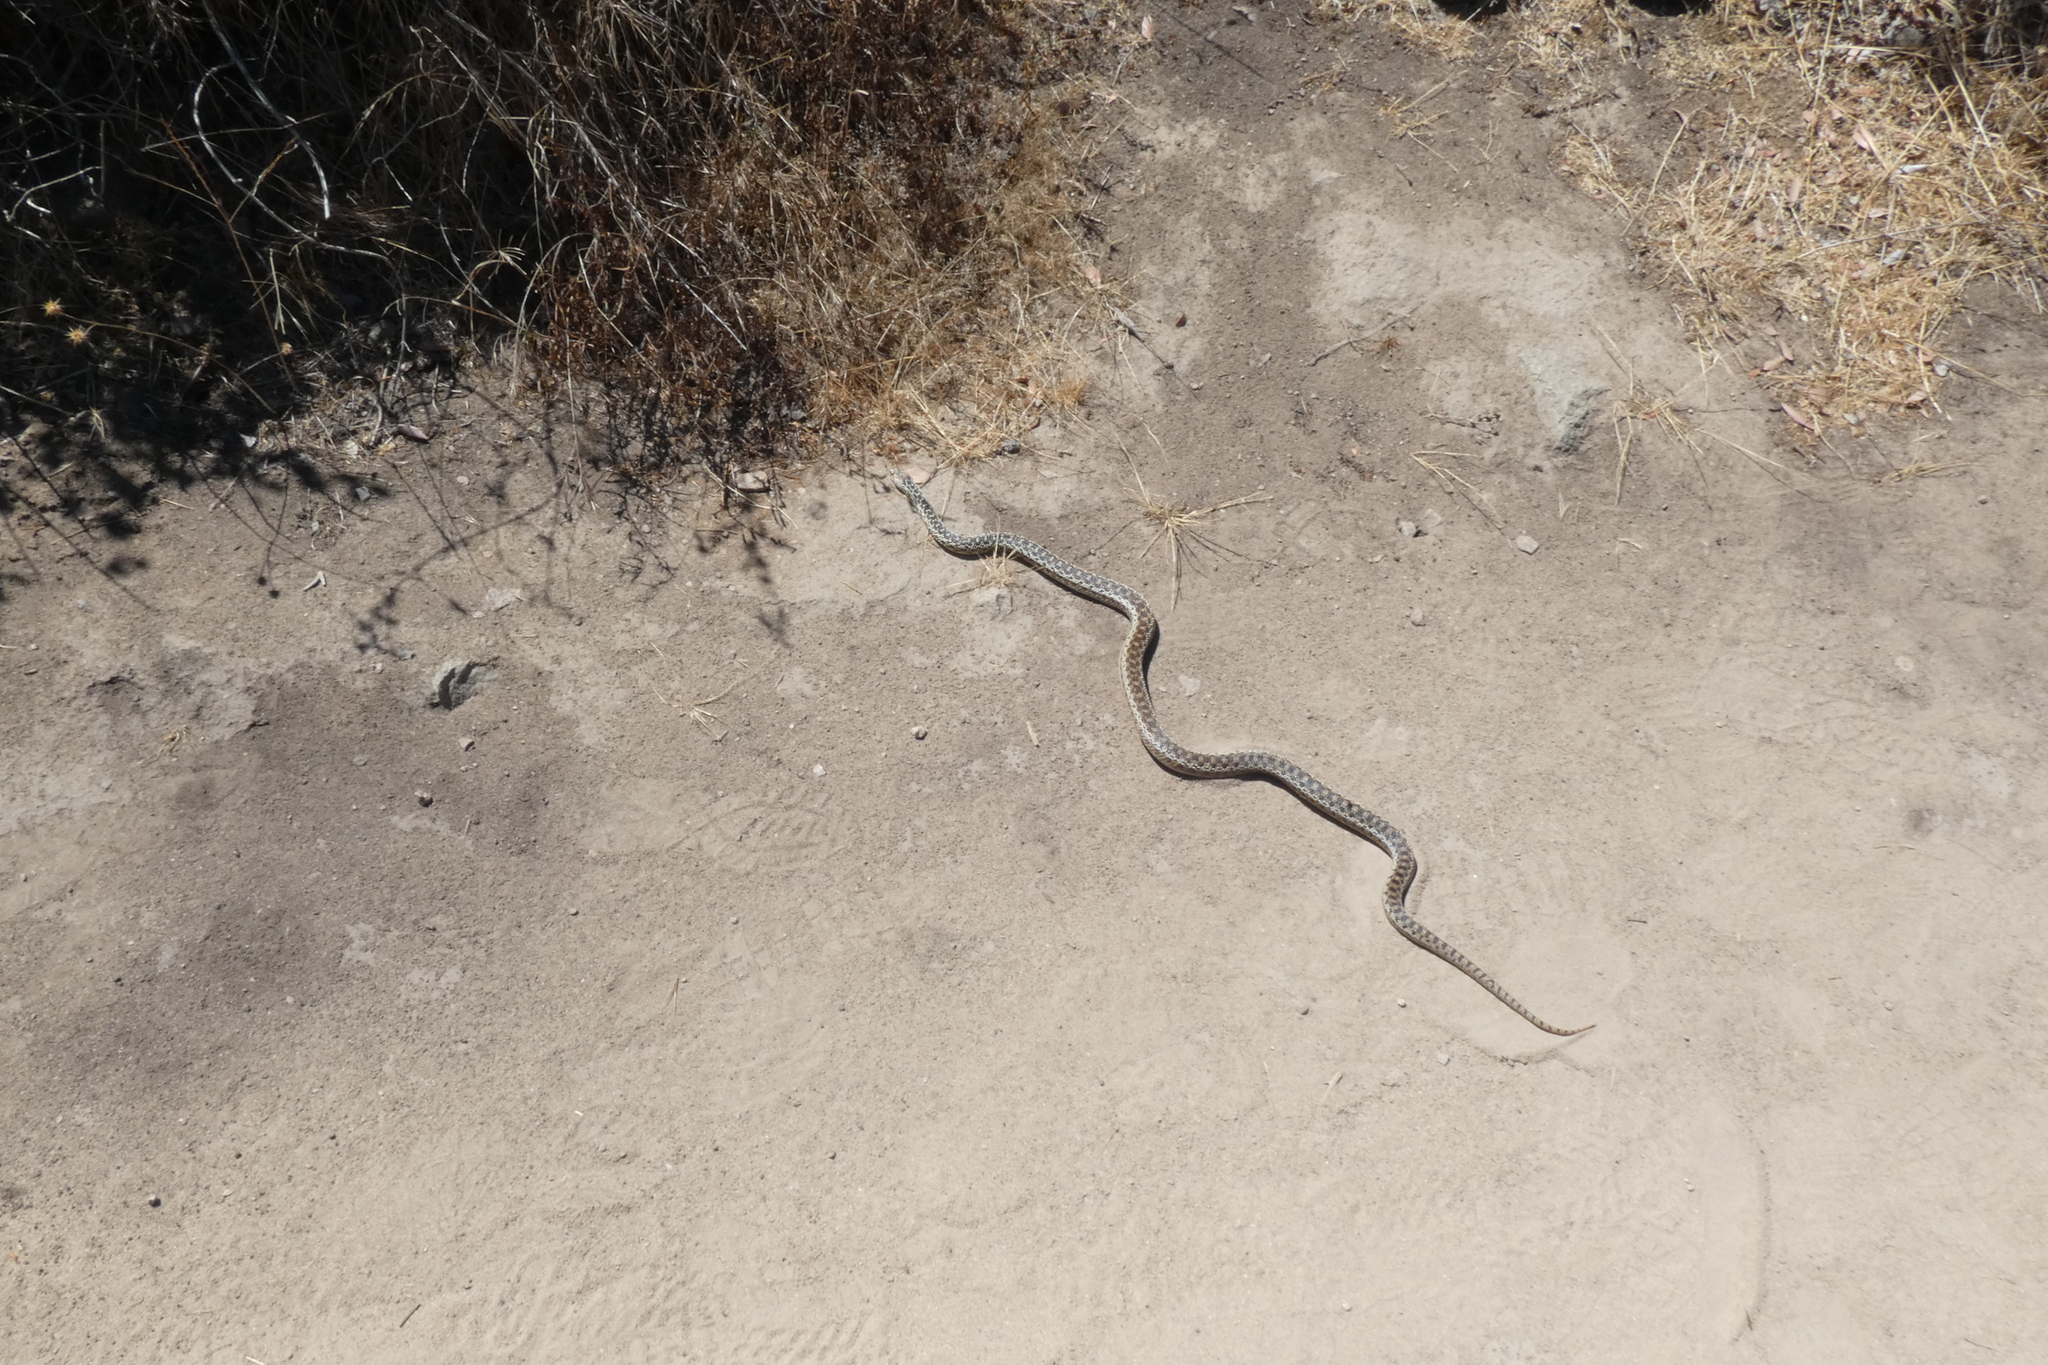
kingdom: Animalia
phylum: Chordata
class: Squamata
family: Colubridae
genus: Pituophis
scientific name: Pituophis catenifer
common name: Gopher snake
